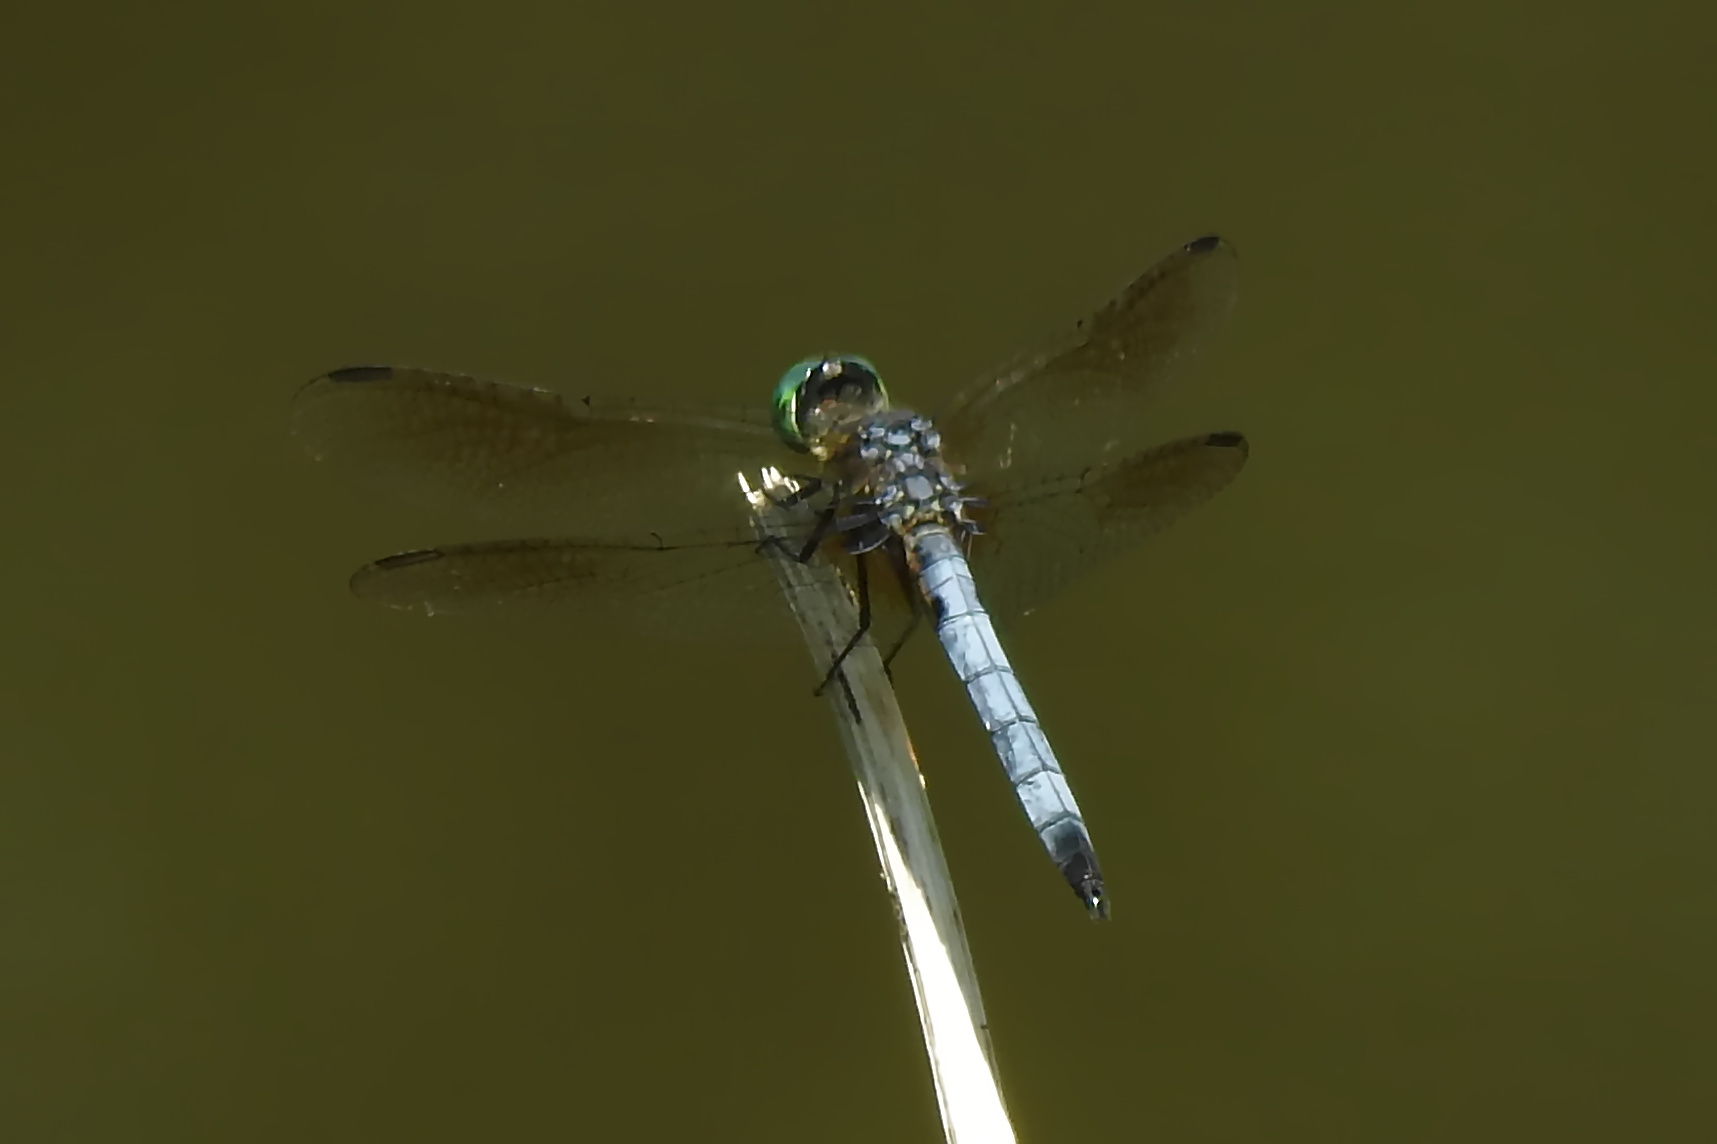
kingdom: Animalia
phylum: Arthropoda
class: Insecta
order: Odonata
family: Libellulidae
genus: Pachydiplax
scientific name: Pachydiplax longipennis
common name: Blue dasher
